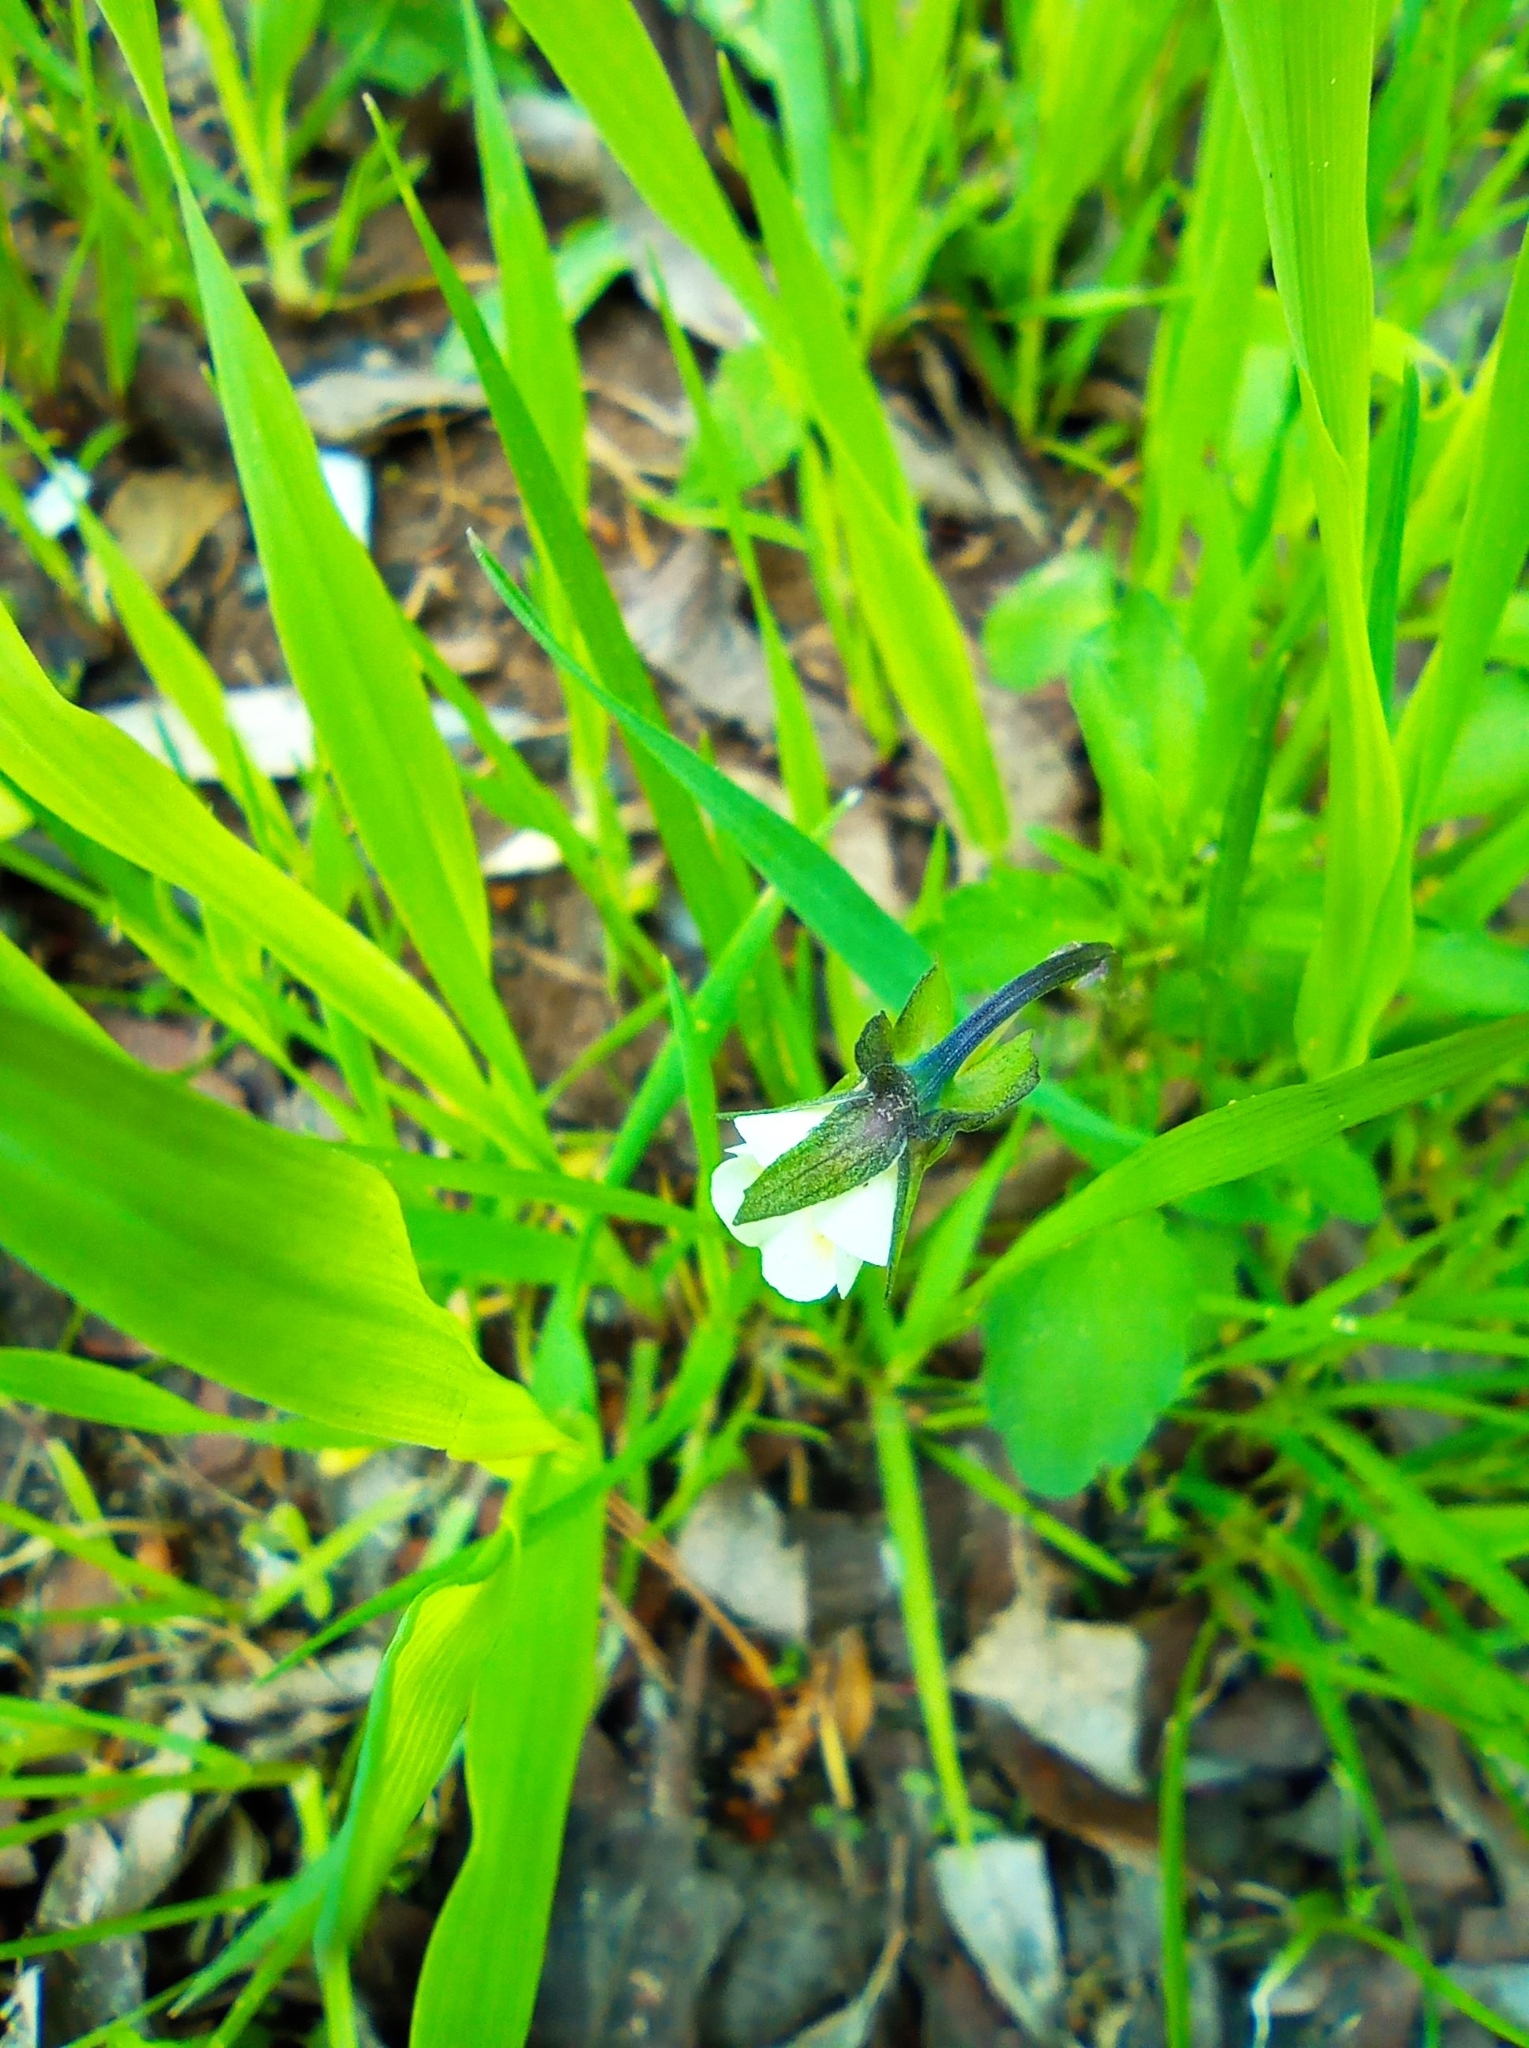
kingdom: Plantae
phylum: Tracheophyta
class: Magnoliopsida
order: Malpighiales
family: Violaceae
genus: Viola
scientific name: Viola arvensis
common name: Field pansy
